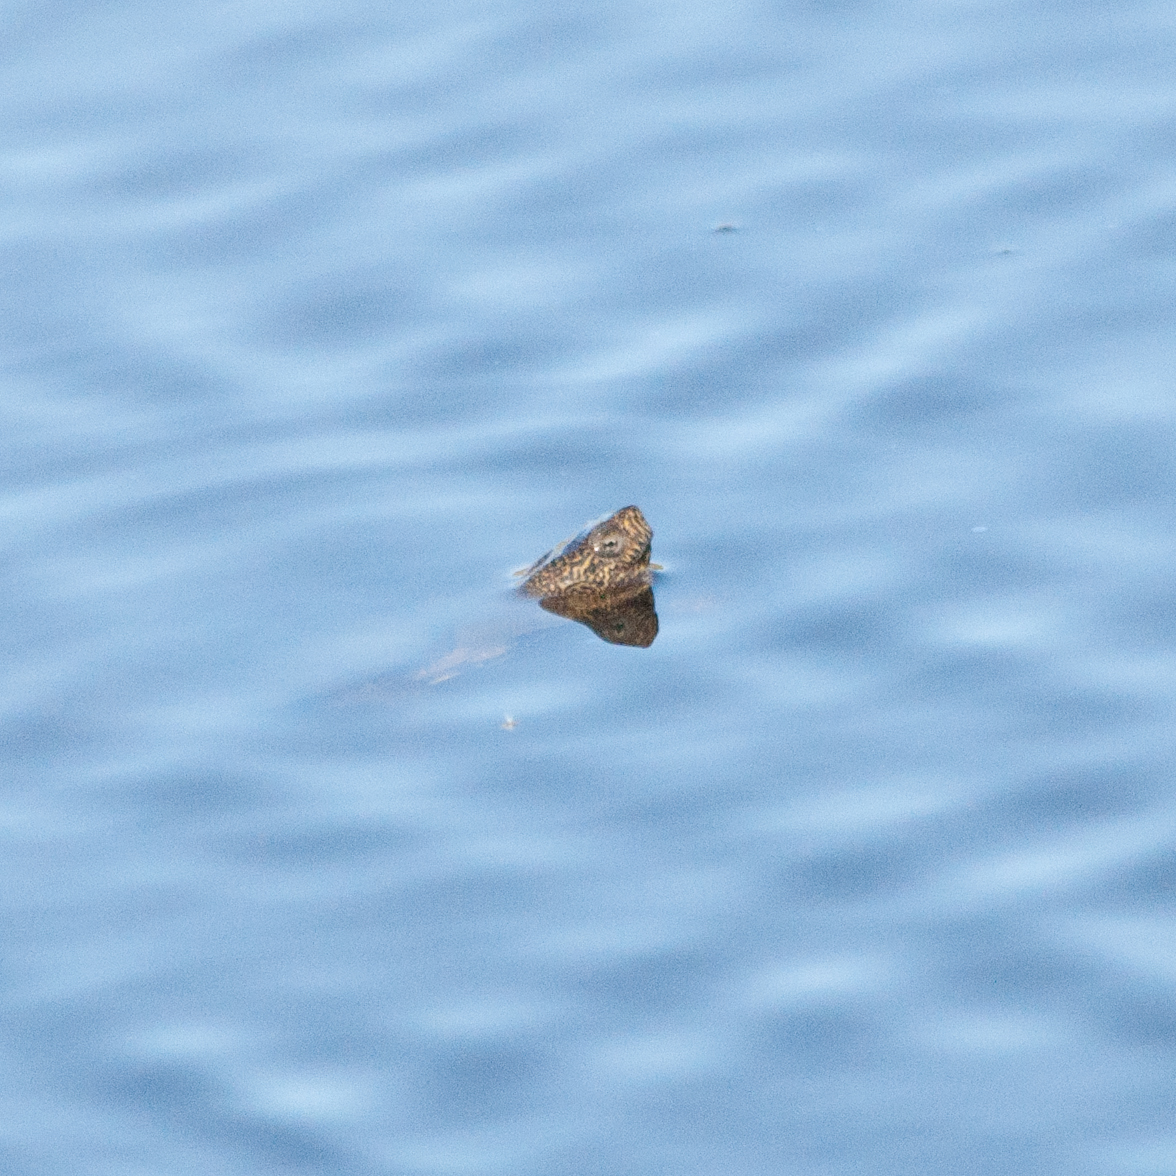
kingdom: Animalia
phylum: Chordata
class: Testudines
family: Emydidae
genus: Actinemys
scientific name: Actinemys marmorata
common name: Western pond turtle
